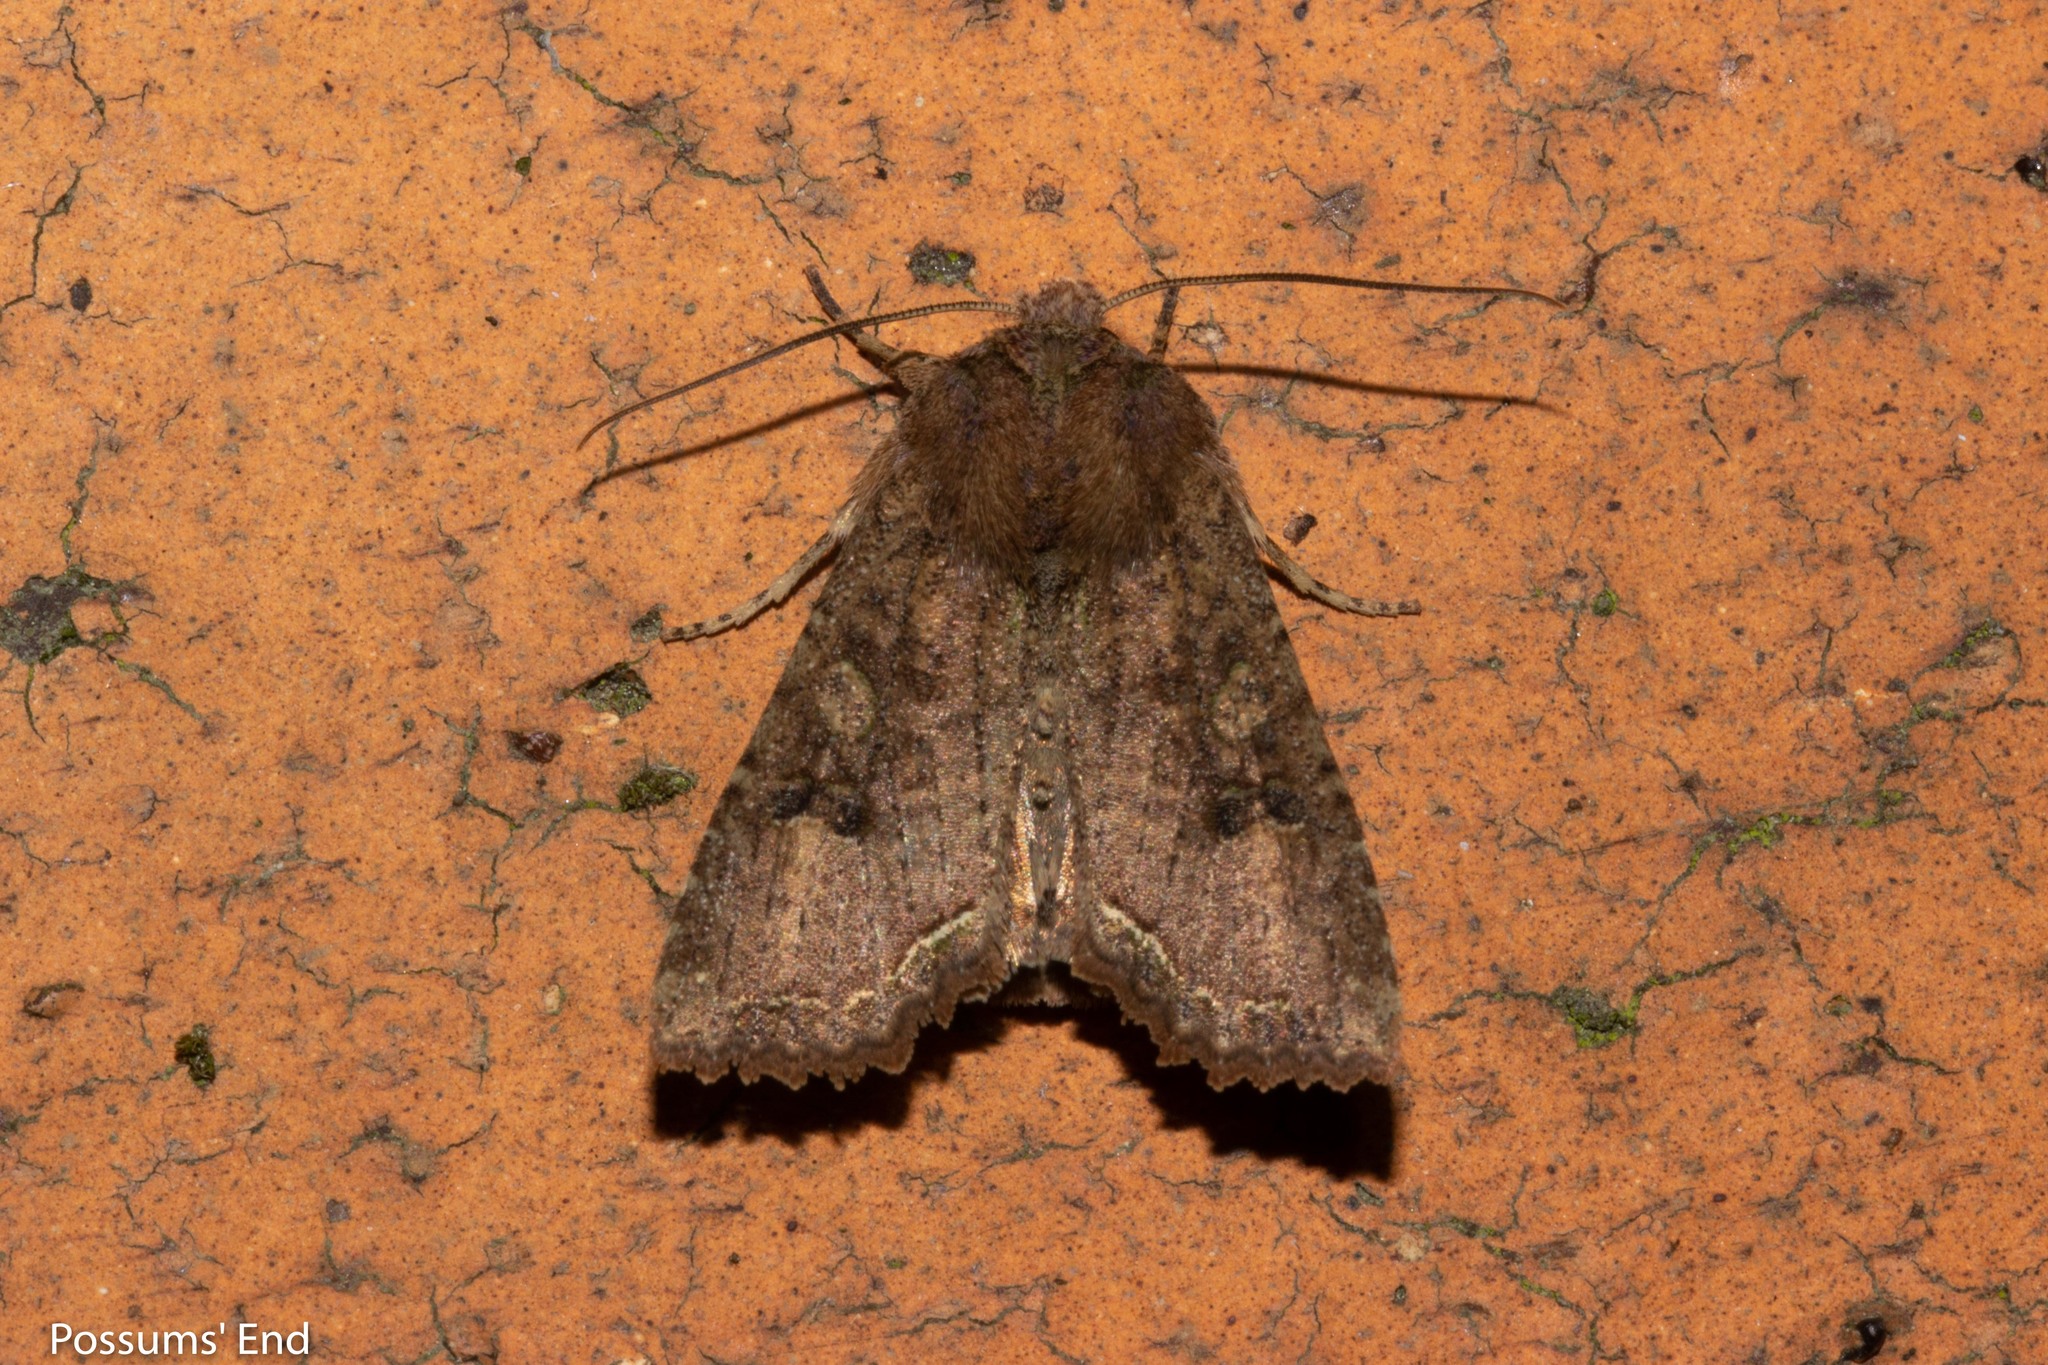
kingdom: Animalia
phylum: Arthropoda
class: Insecta
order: Lepidoptera
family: Noctuidae
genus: Meterana
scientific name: Meterana inchoata
